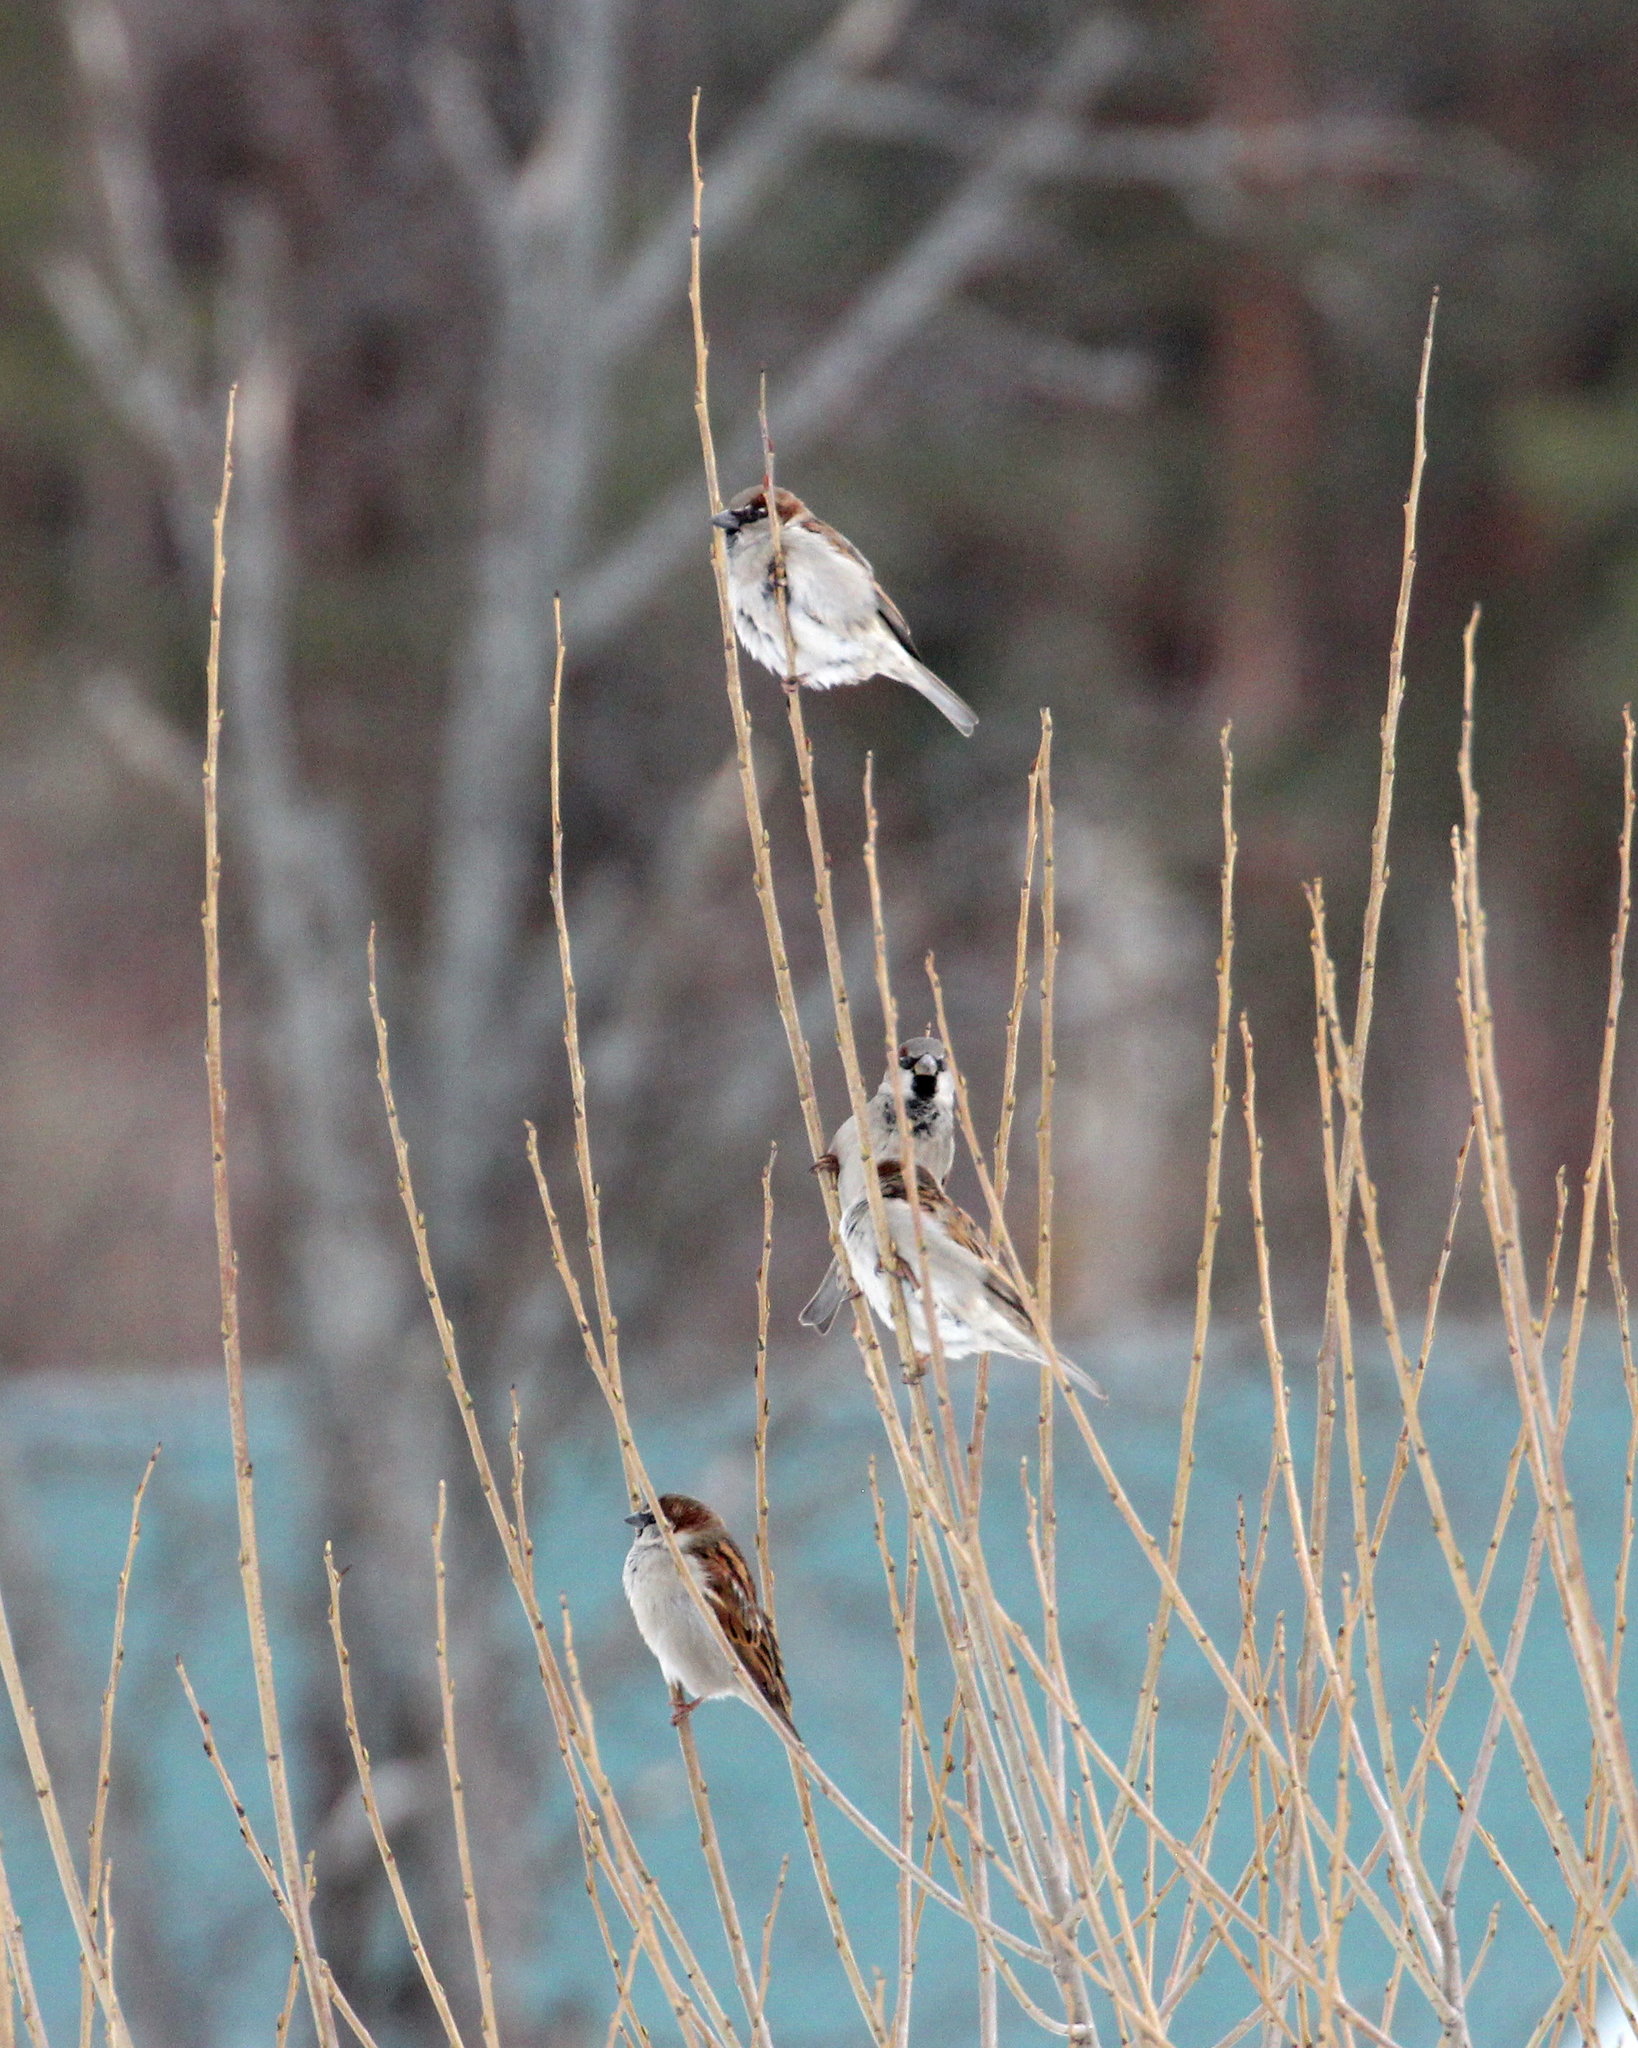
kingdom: Animalia
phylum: Chordata
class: Aves
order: Passeriformes
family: Passeridae
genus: Passer
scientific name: Passer domesticus
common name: House sparrow
